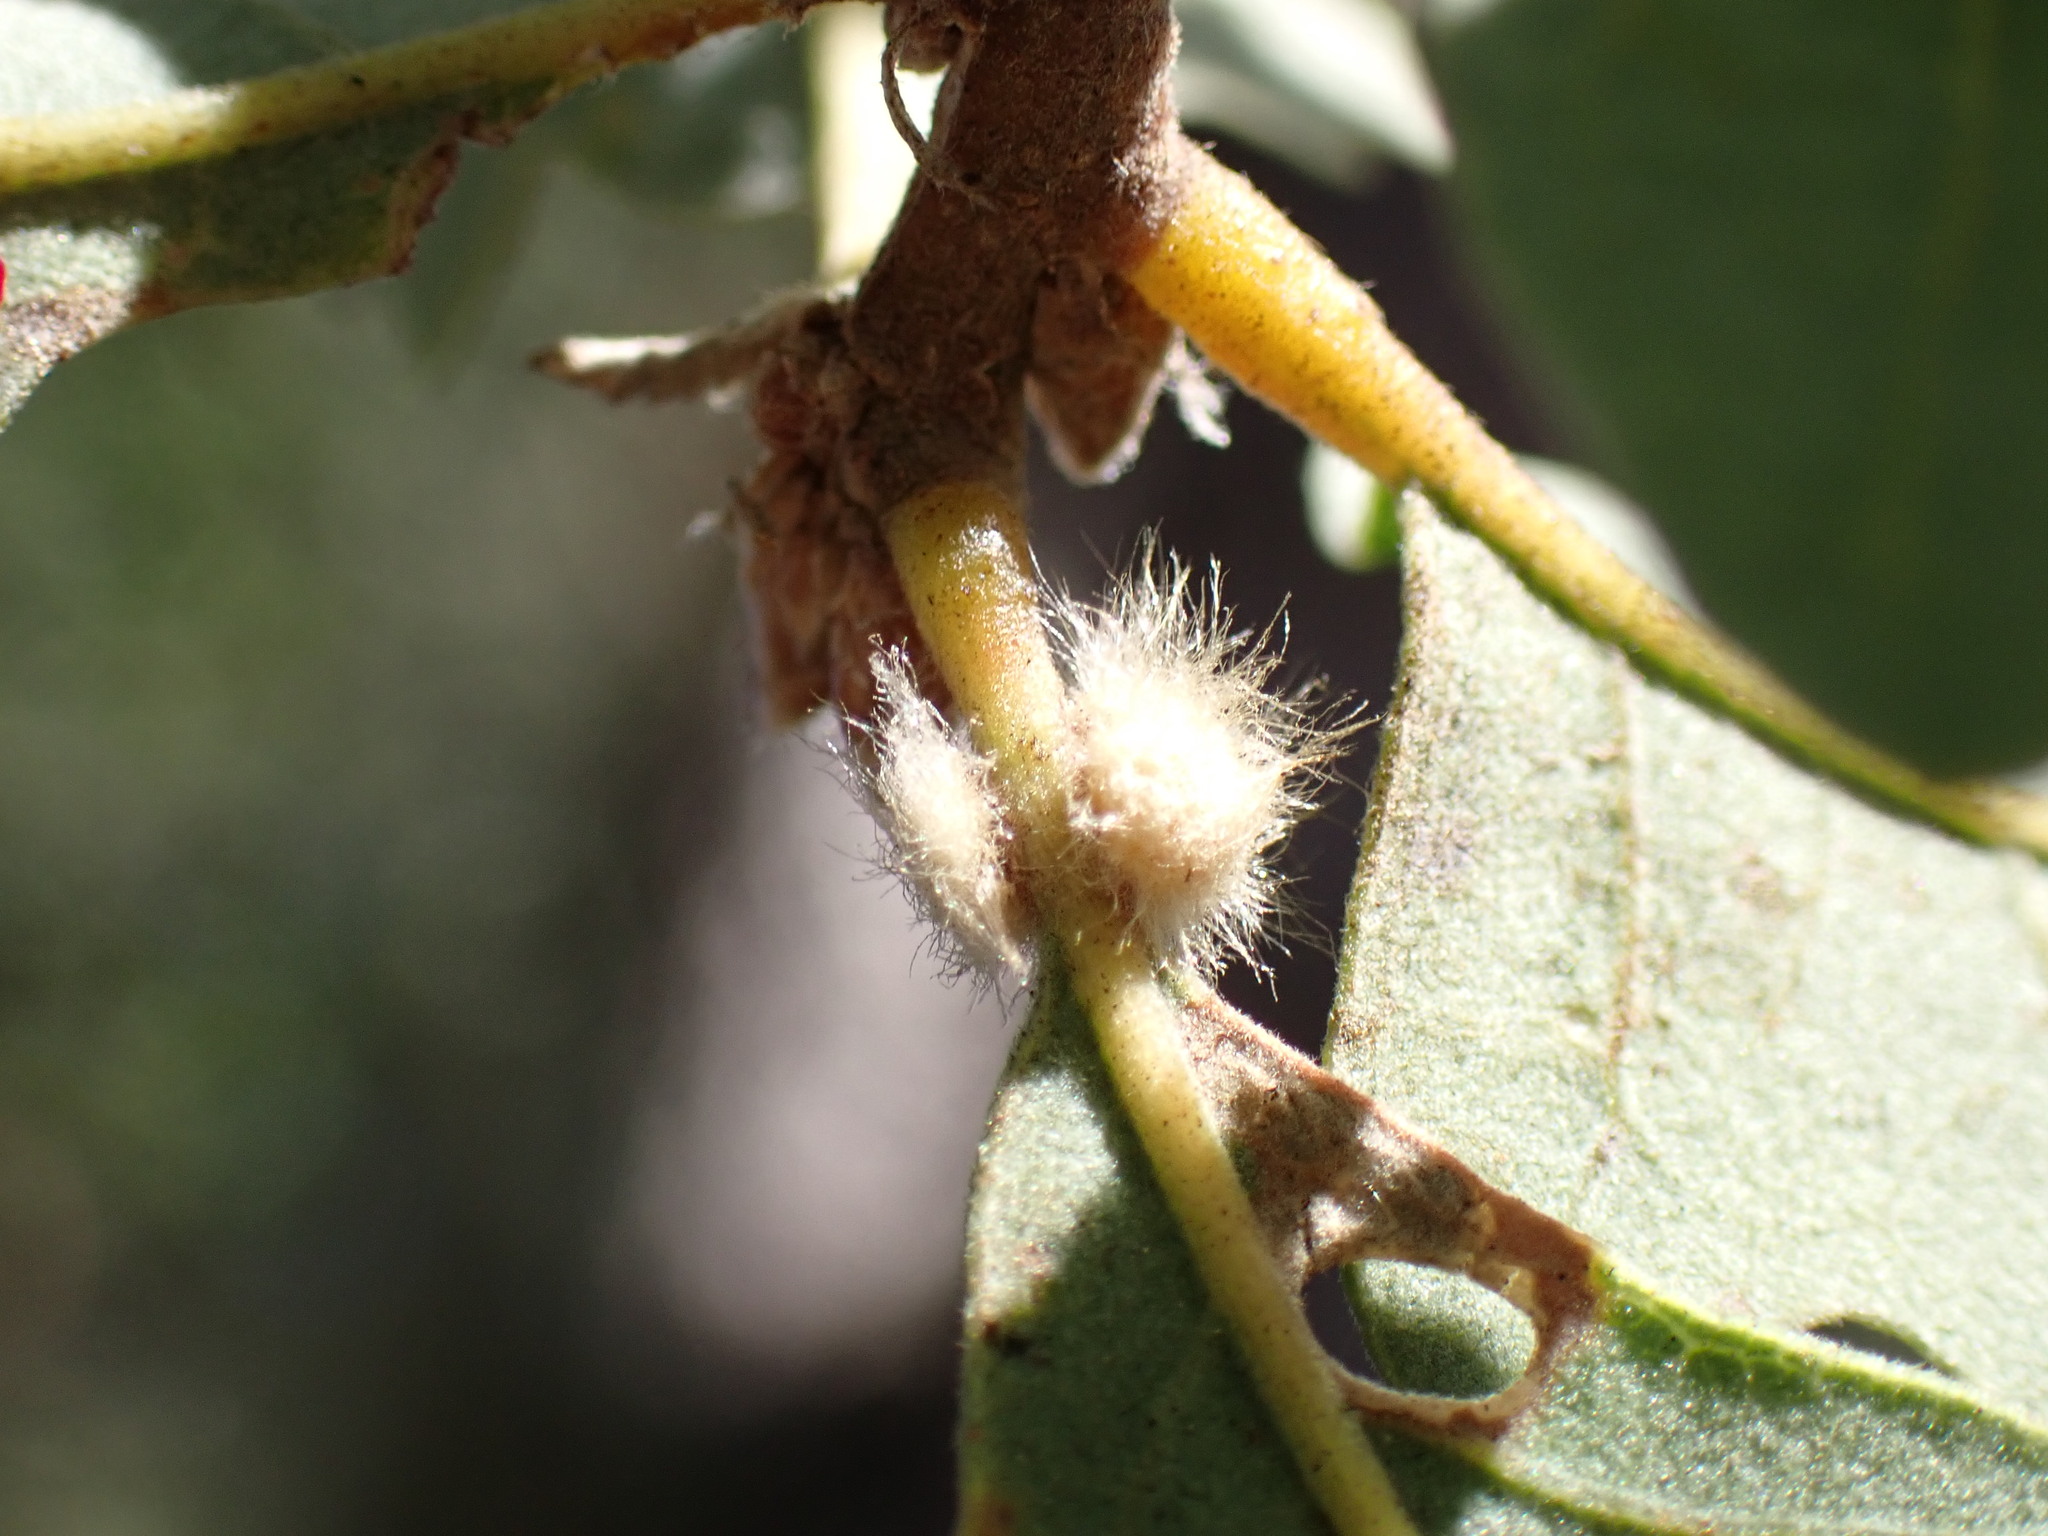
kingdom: Animalia
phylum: Arthropoda
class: Insecta
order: Hymenoptera
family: Cynipidae
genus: Andricus
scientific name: Andricus Druon fullawayi
